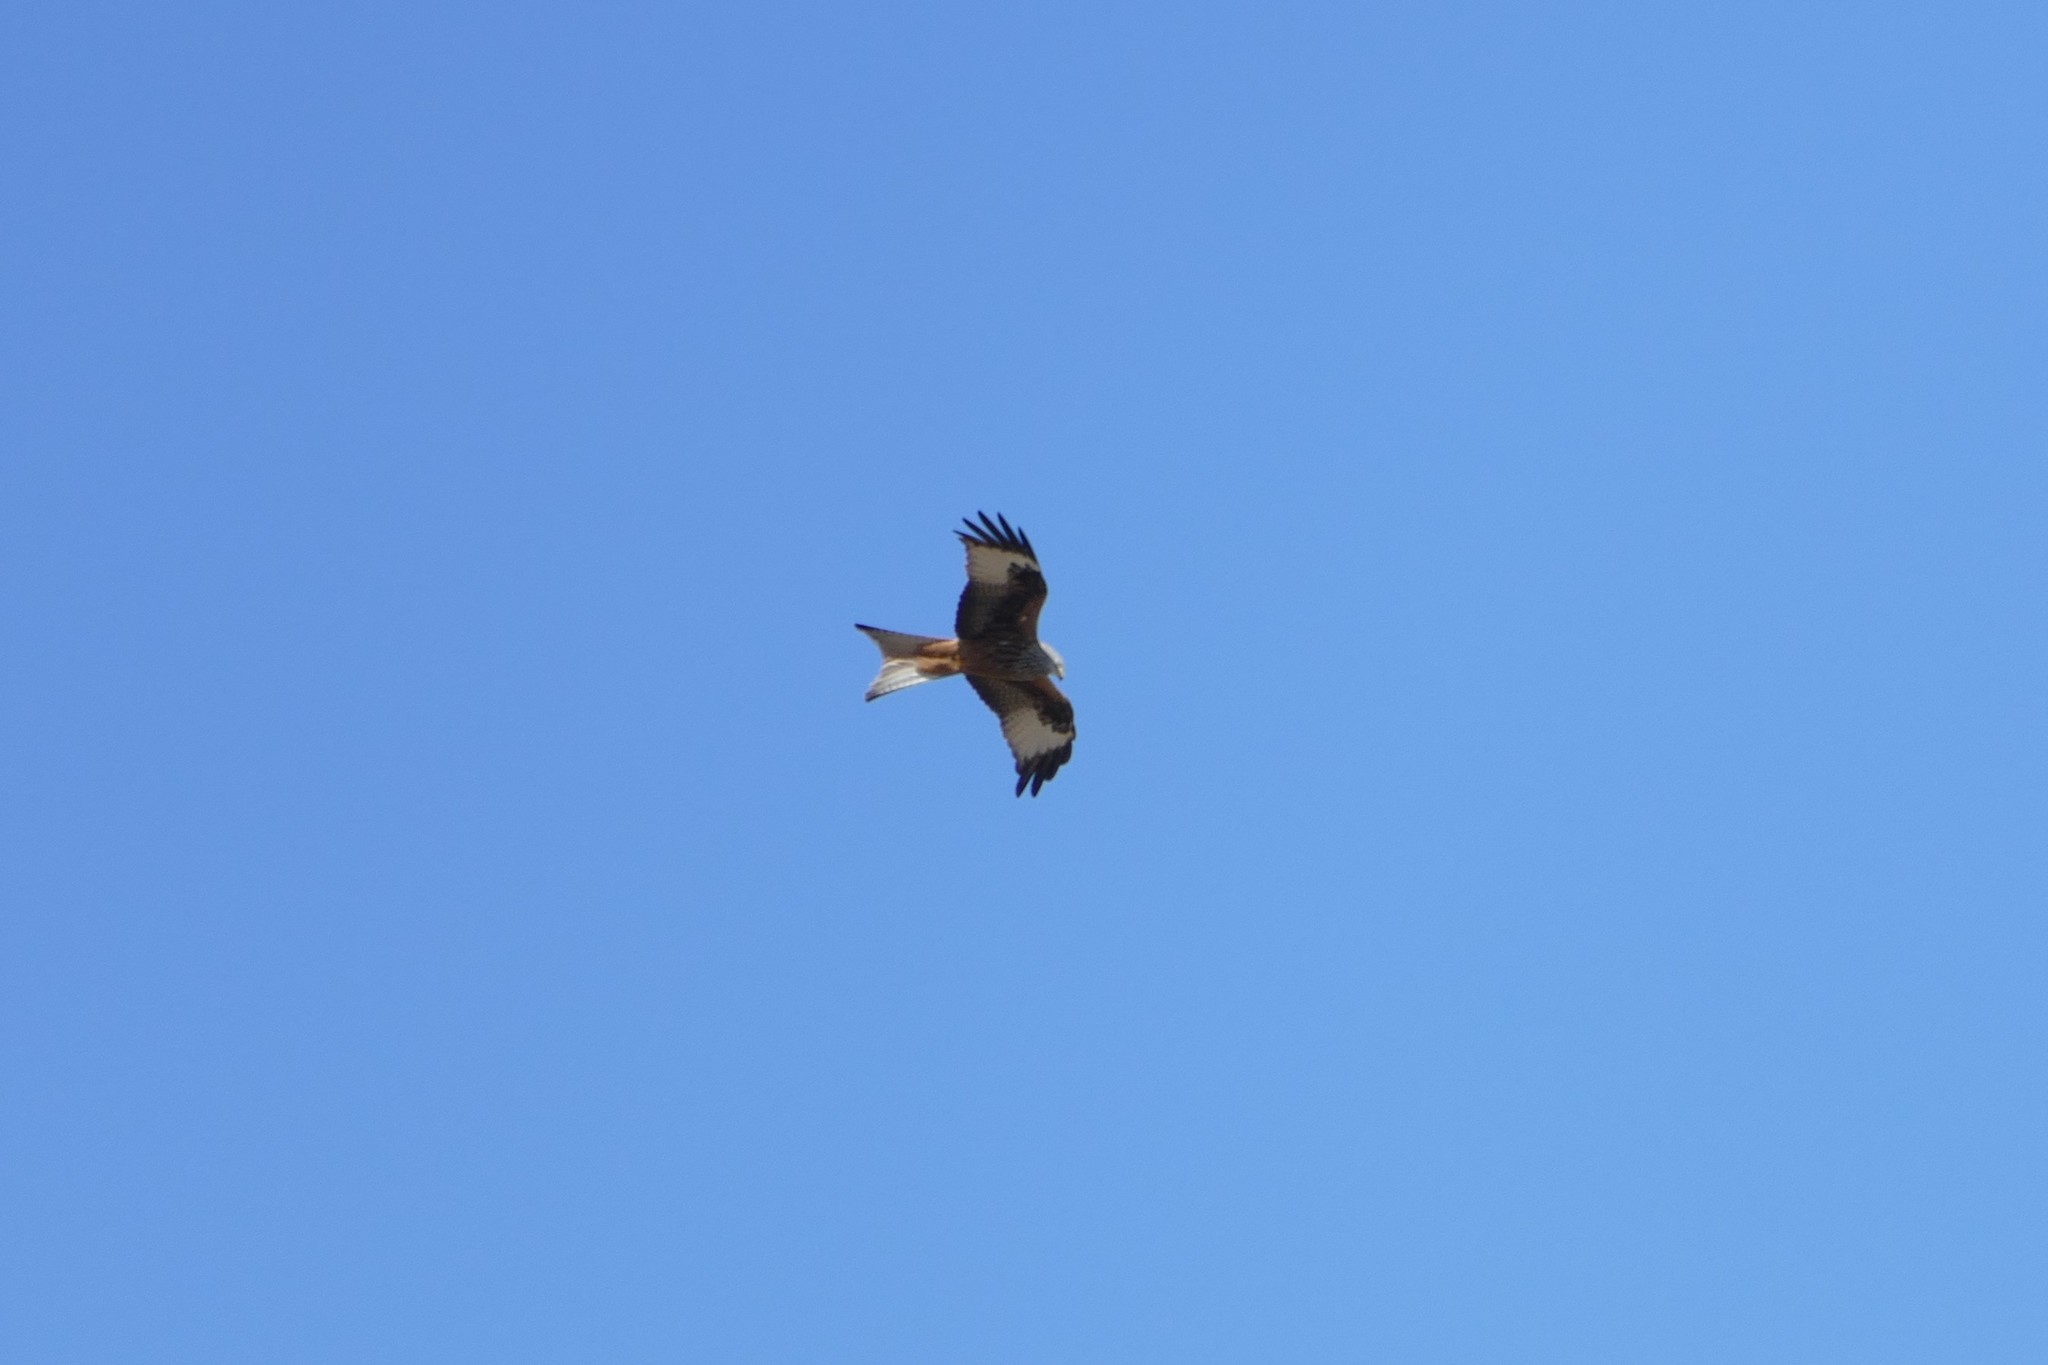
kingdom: Animalia
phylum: Chordata
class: Aves
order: Accipitriformes
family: Accipitridae
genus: Milvus
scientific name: Milvus milvus
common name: Red kite
